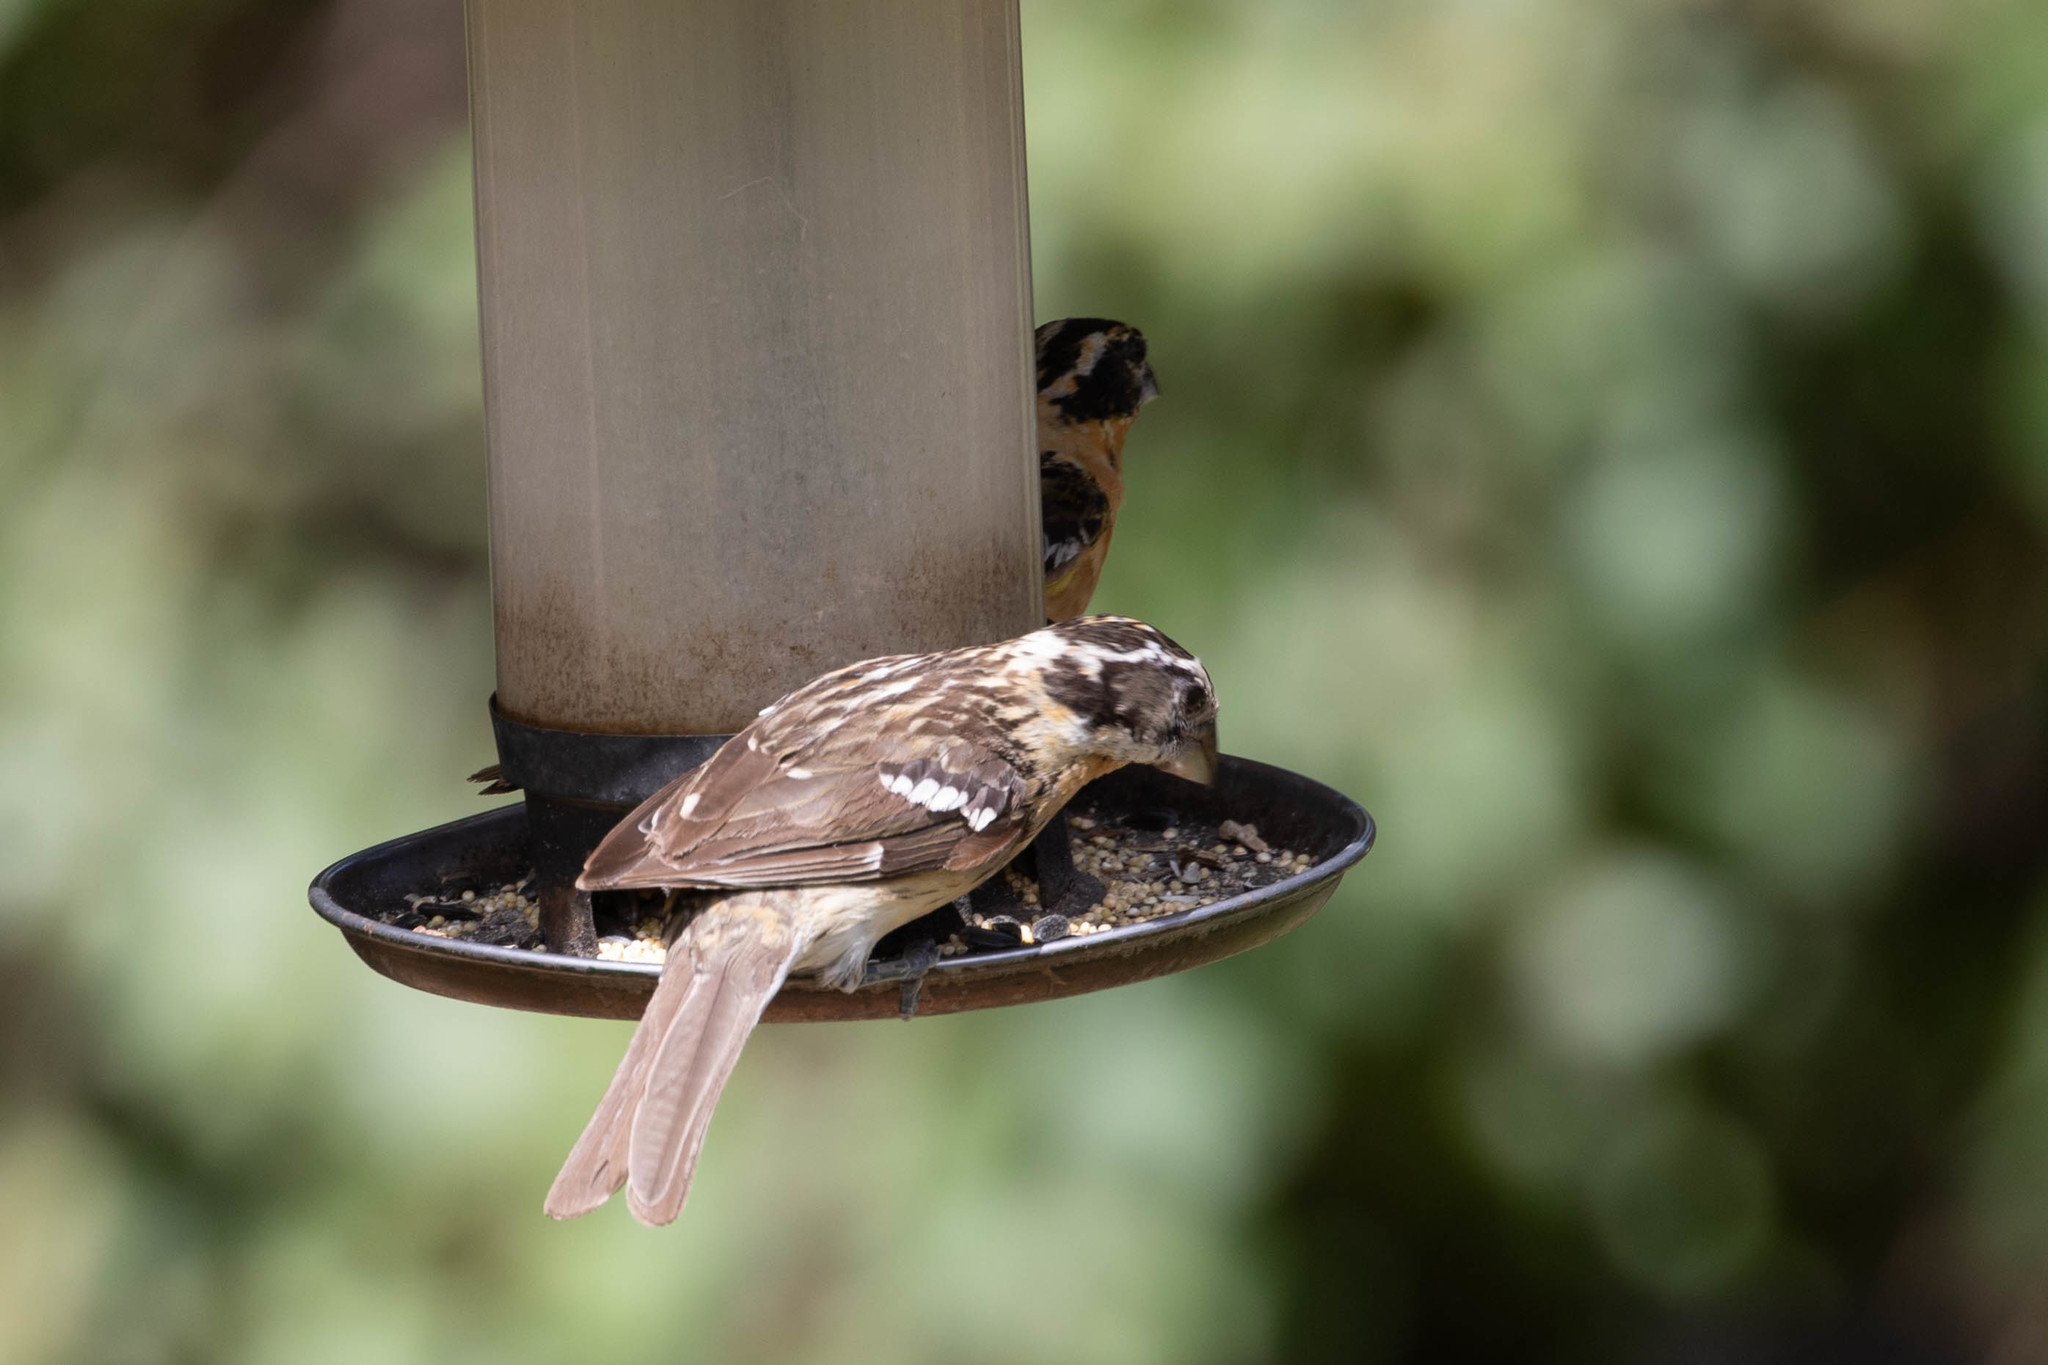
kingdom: Animalia
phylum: Chordata
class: Aves
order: Passeriformes
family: Cardinalidae
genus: Pheucticus
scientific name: Pheucticus melanocephalus
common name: Black-headed grosbeak
